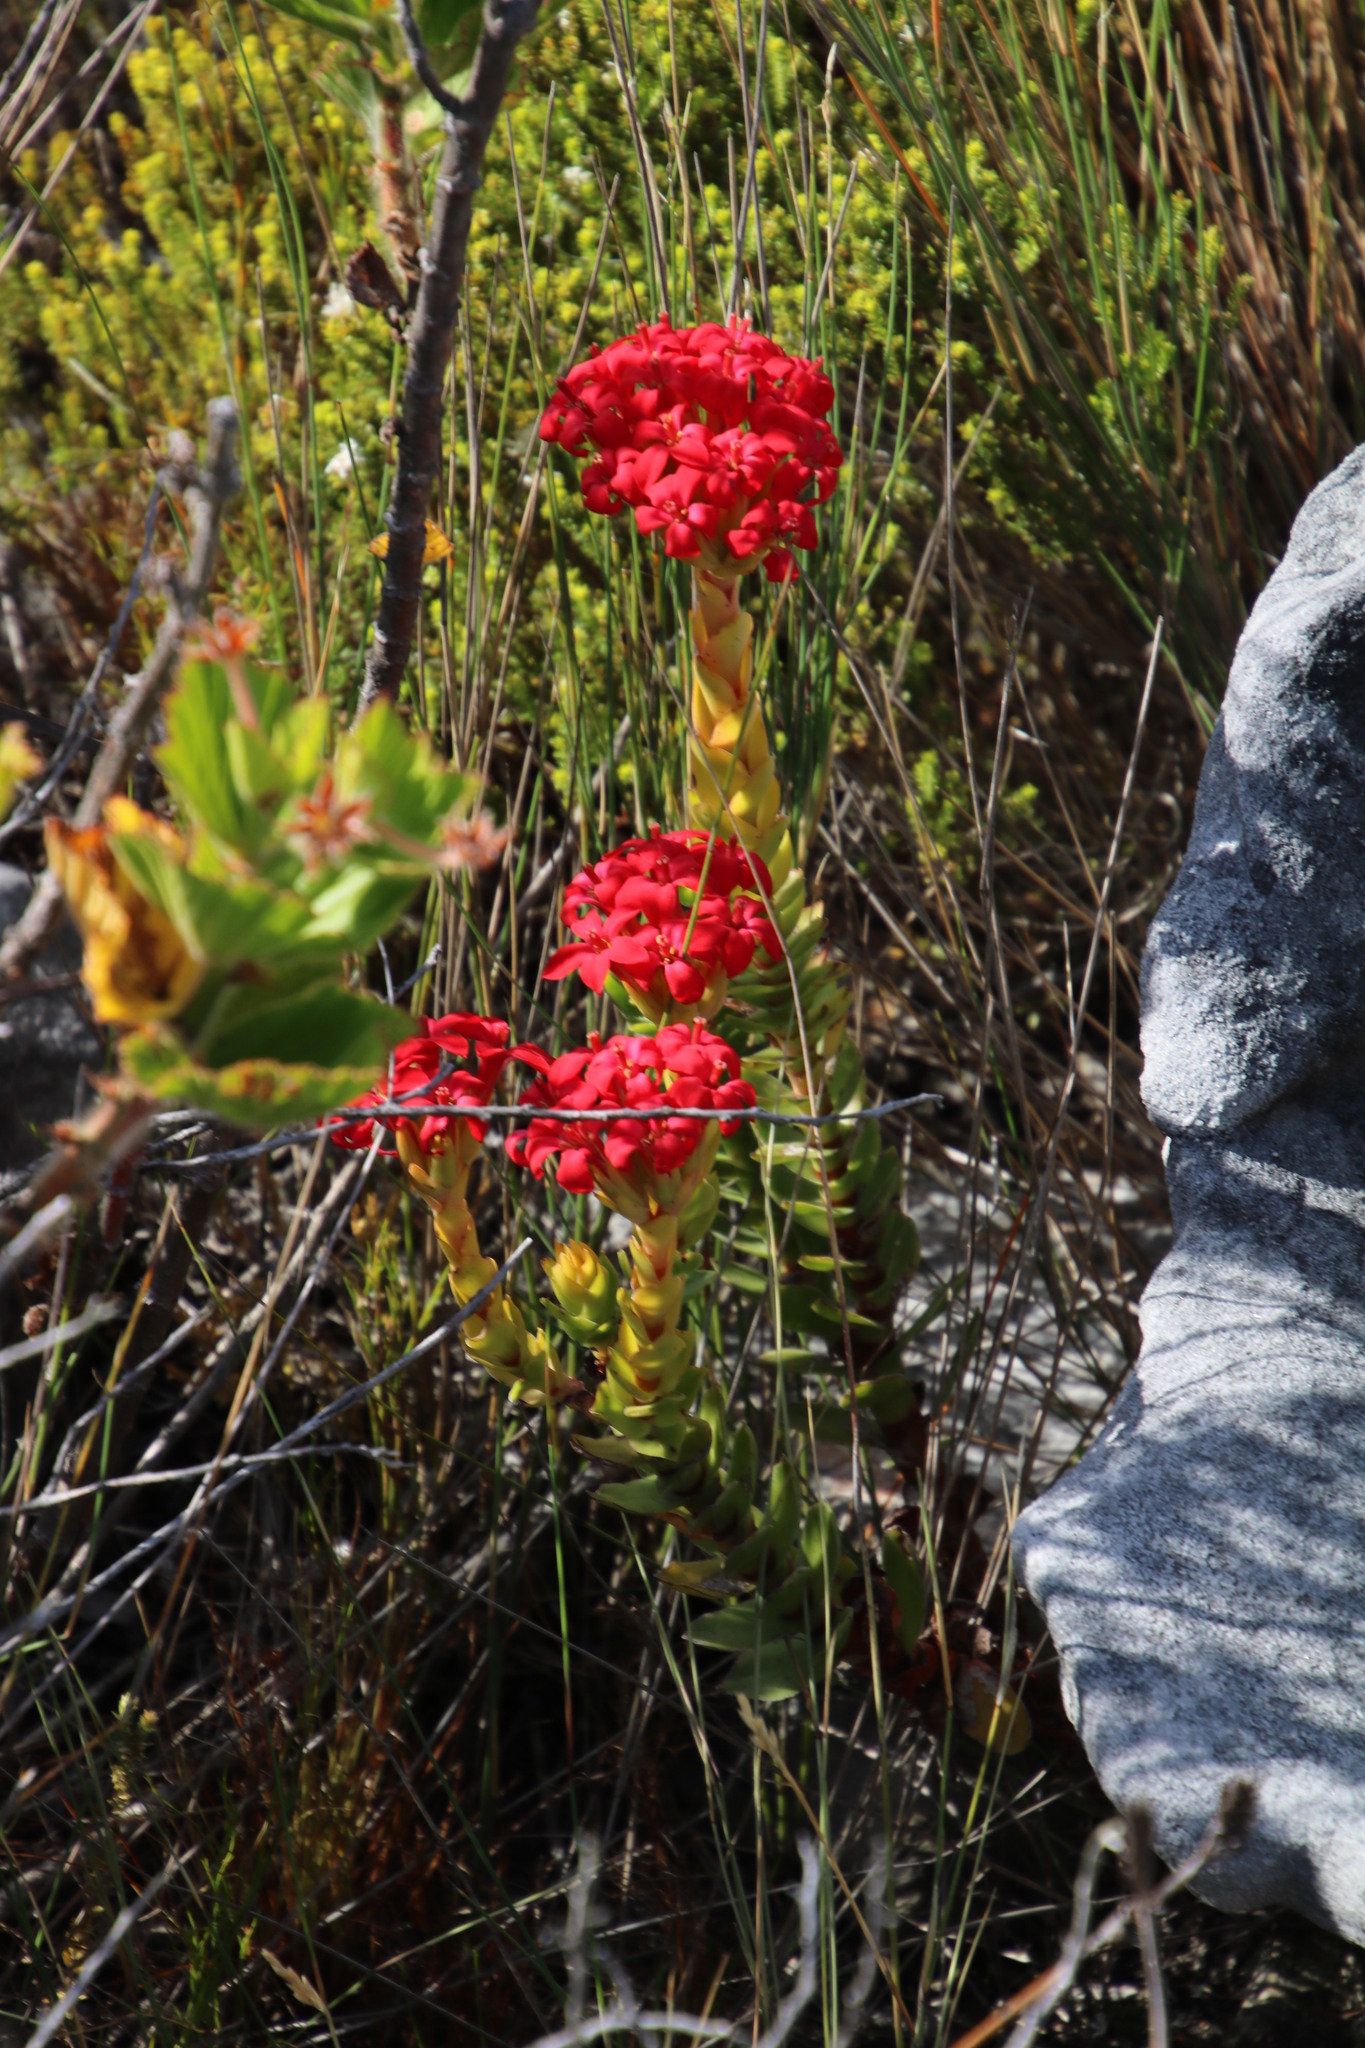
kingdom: Plantae
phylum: Tracheophyta
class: Magnoliopsida
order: Saxifragales
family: Crassulaceae
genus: Crassula
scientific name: Crassula coccinea
